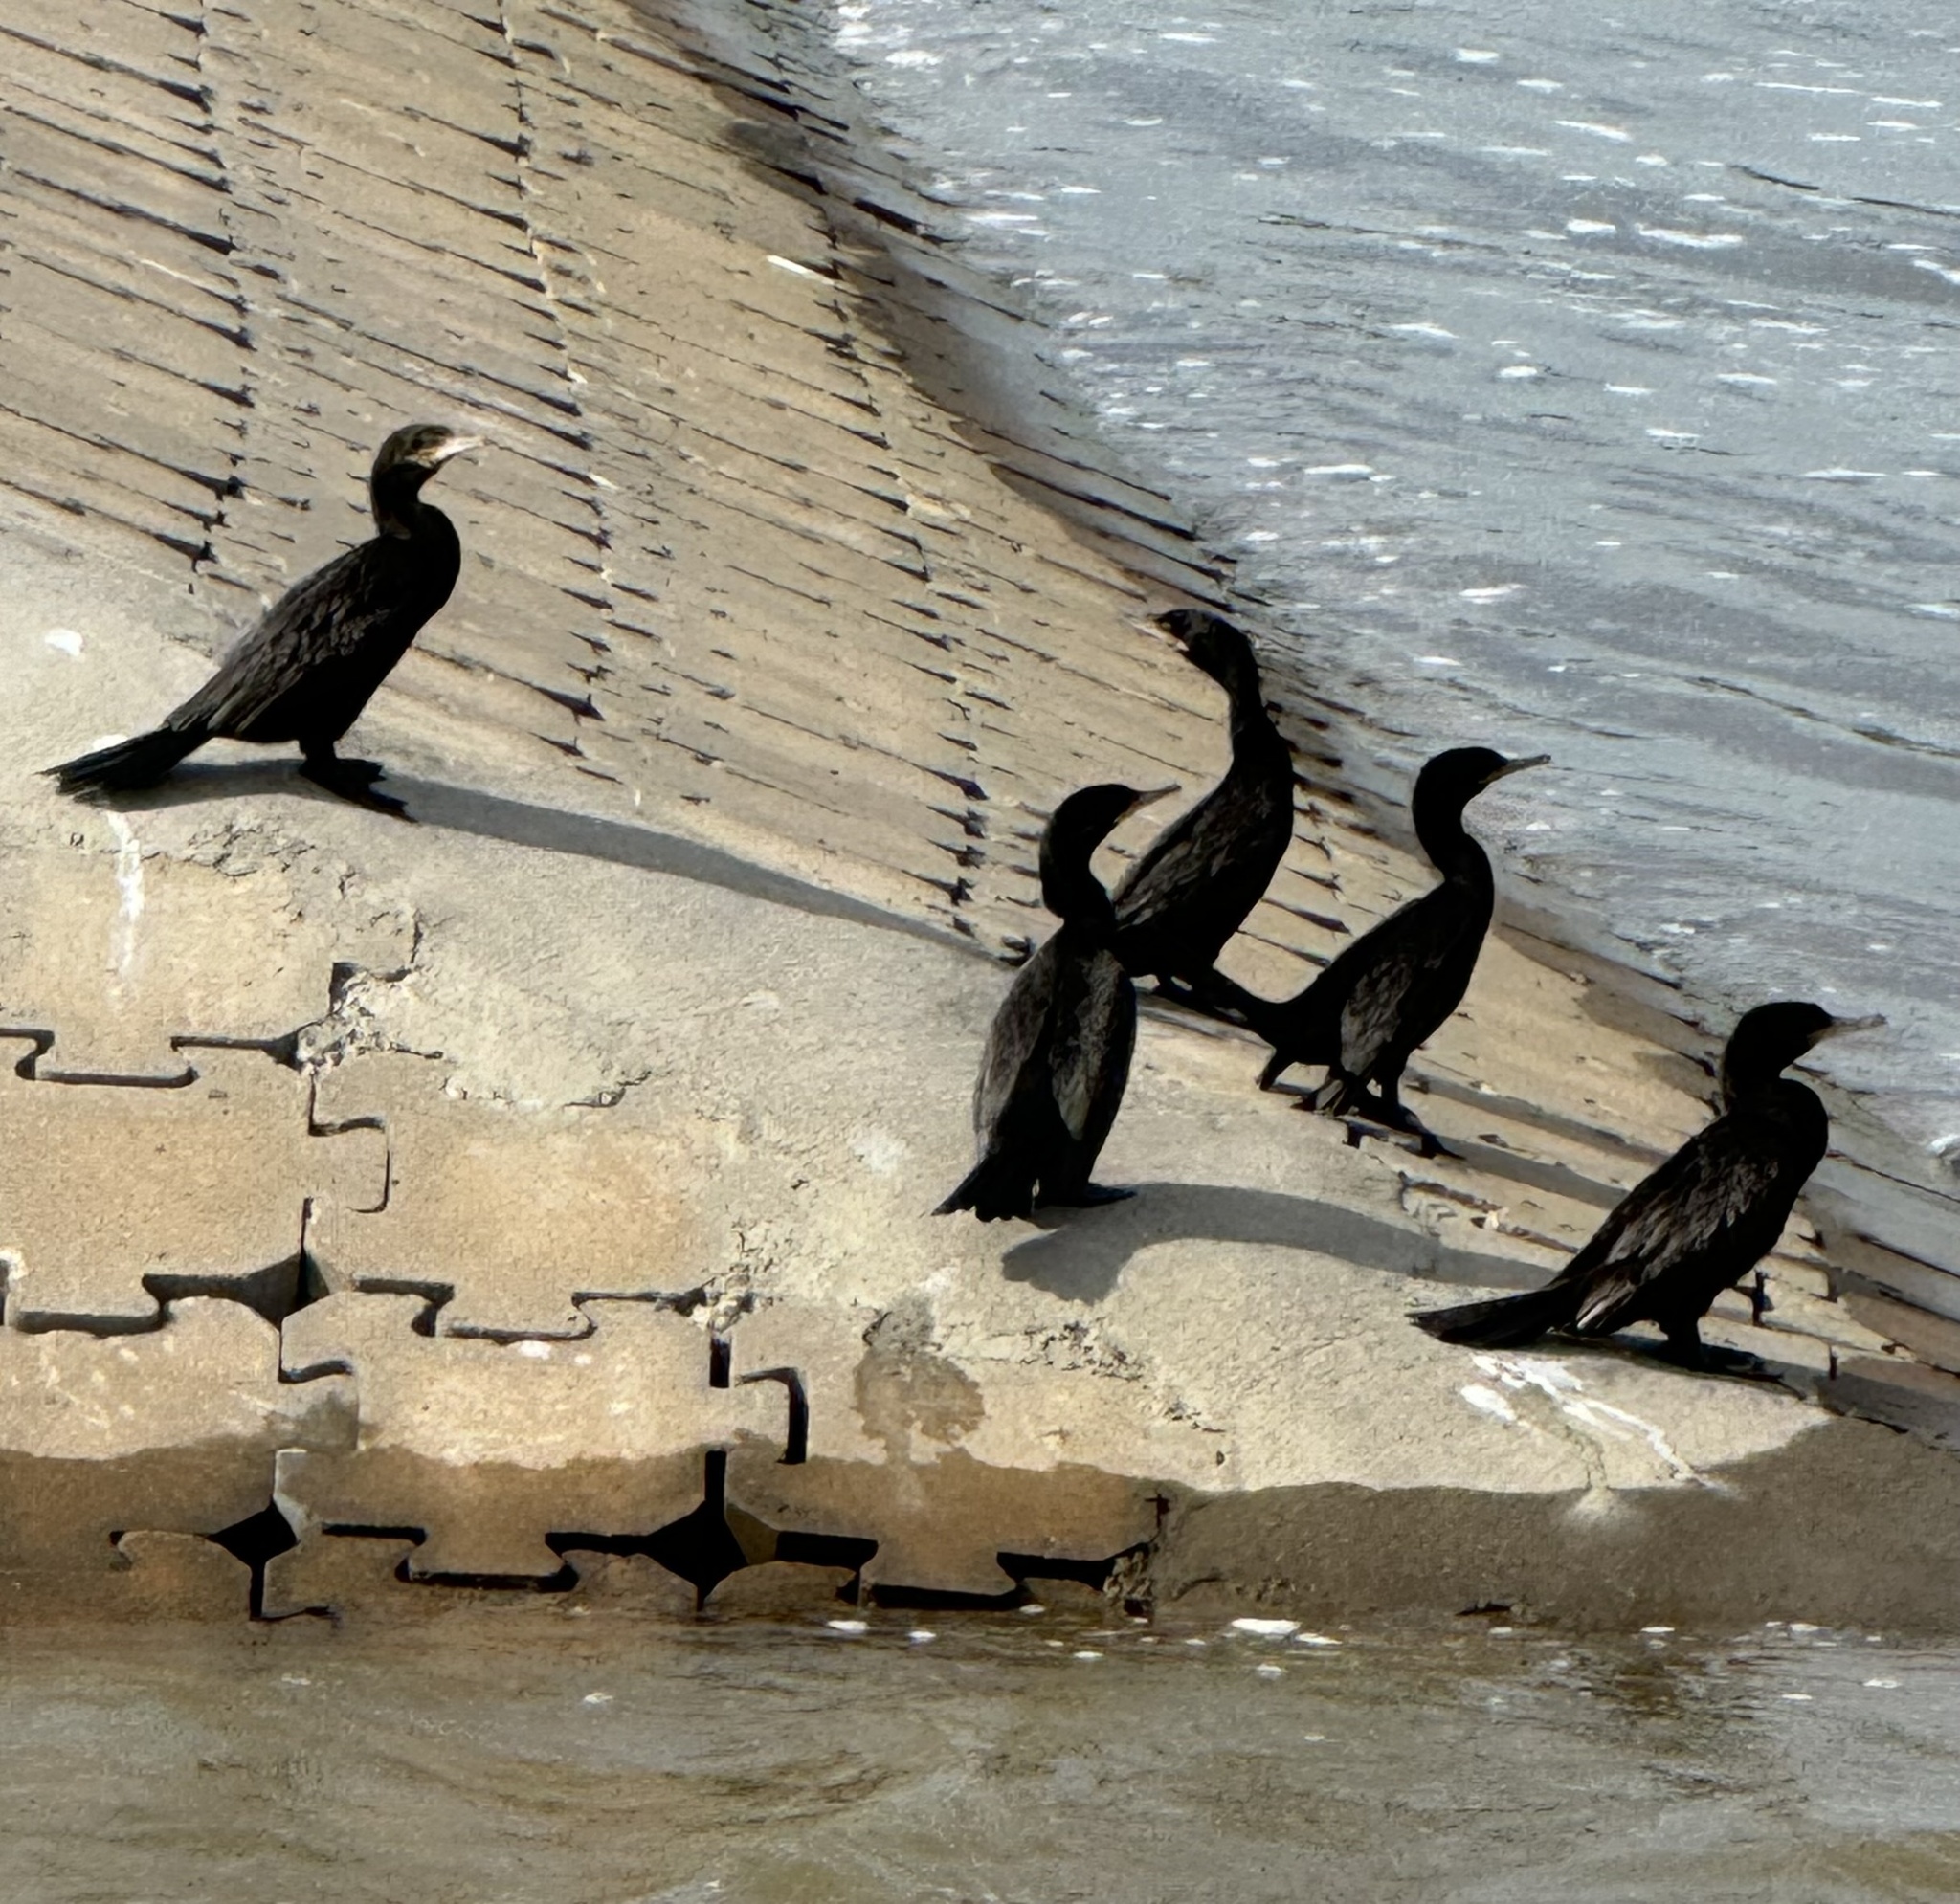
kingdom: Animalia
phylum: Chordata
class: Aves
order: Suliformes
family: Phalacrocoracidae
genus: Phalacrocorax
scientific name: Phalacrocorax brasilianus
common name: Neotropic cormorant
